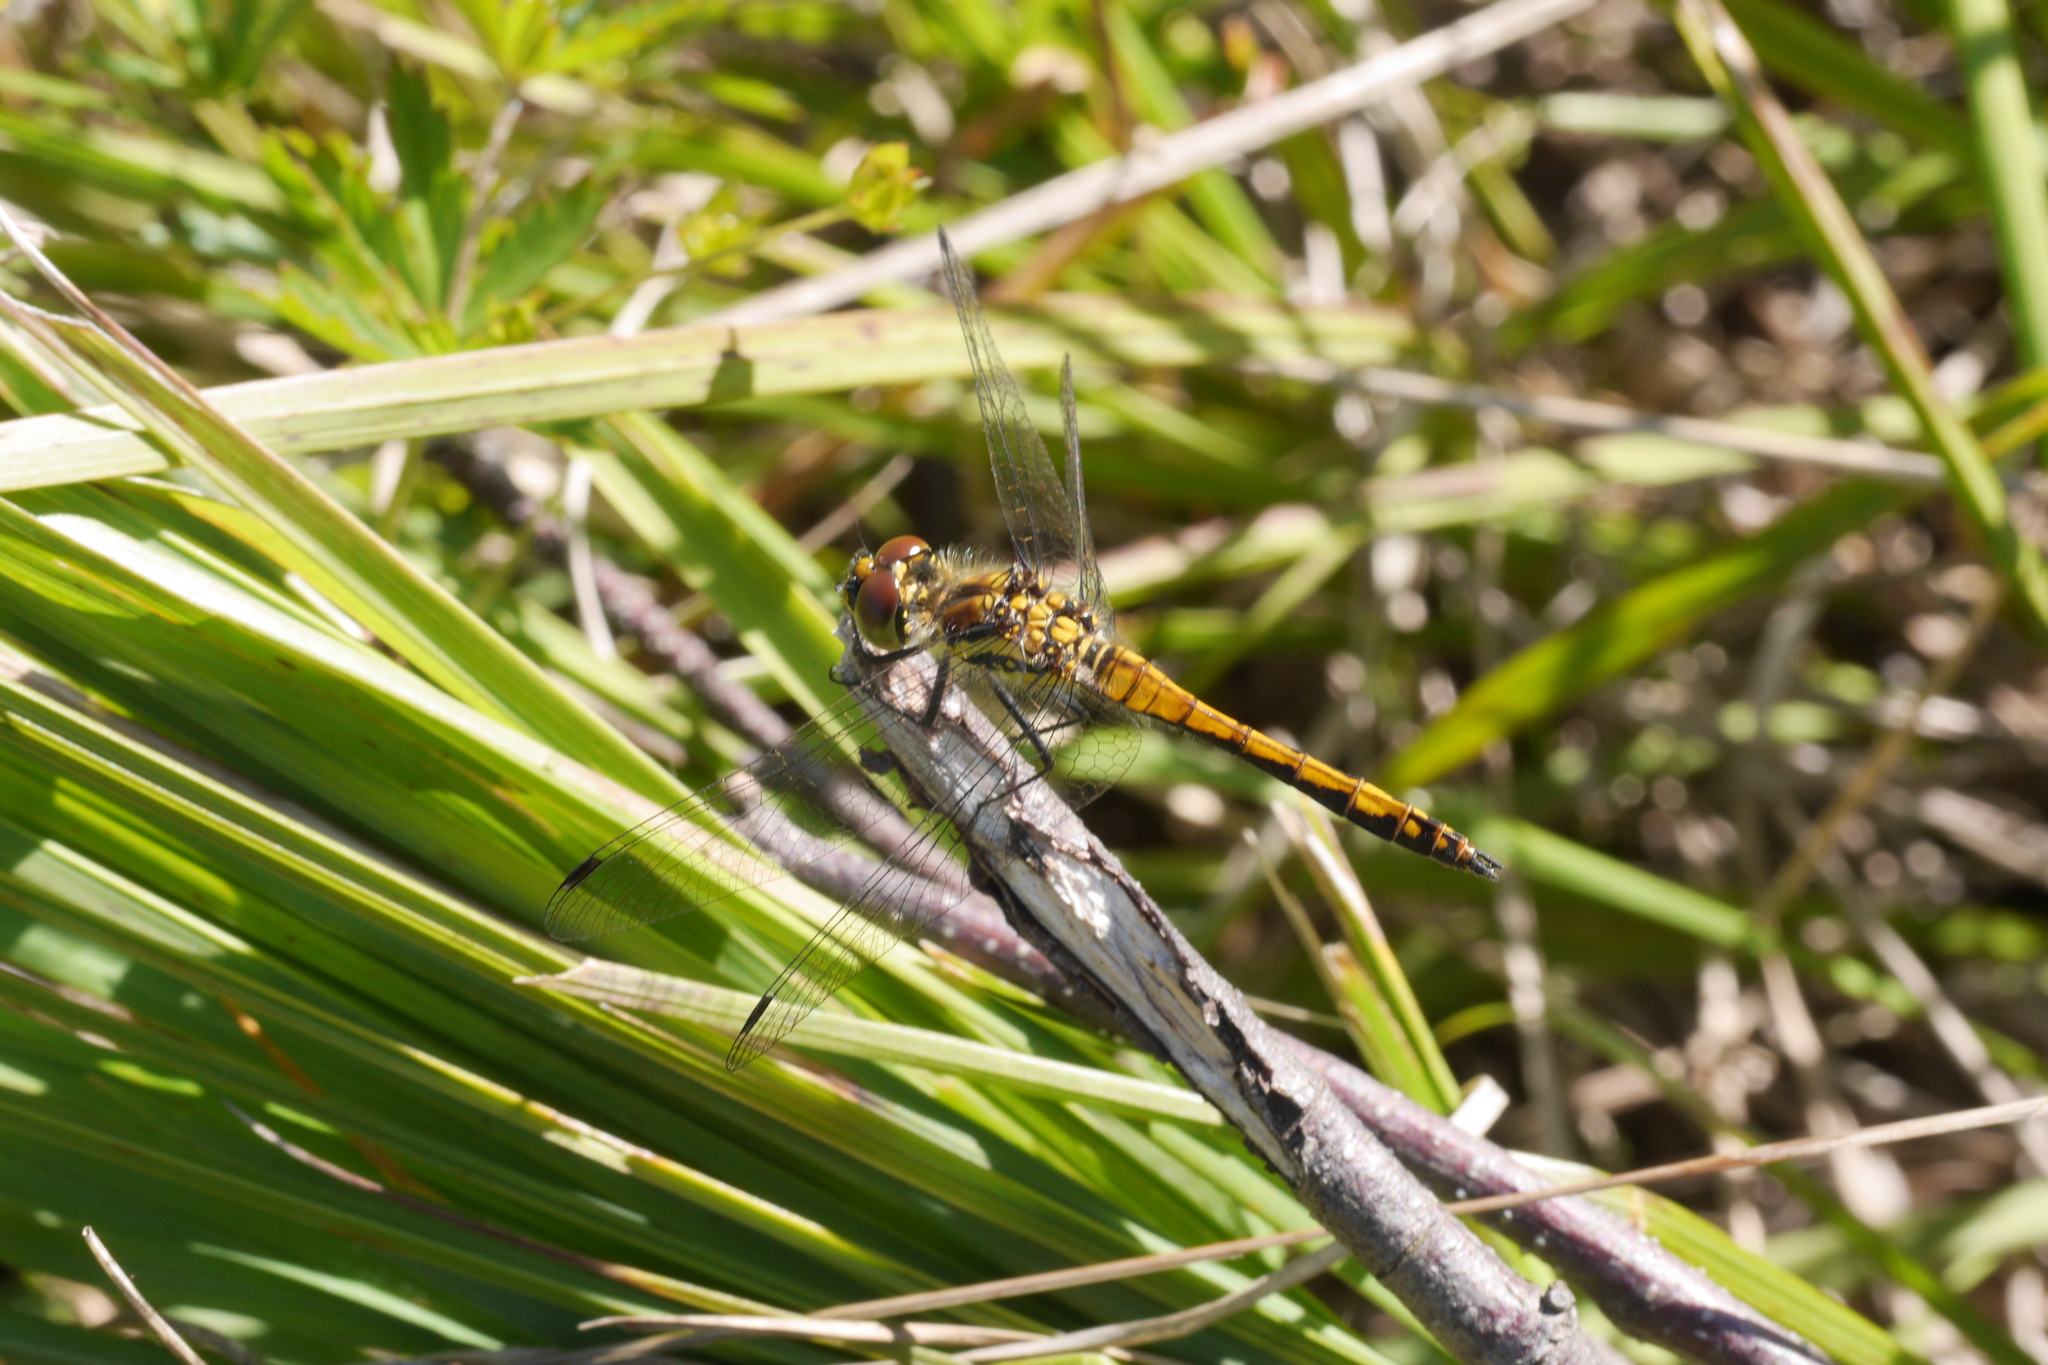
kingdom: Animalia
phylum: Arthropoda
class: Insecta
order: Odonata
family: Libellulidae
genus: Sympetrum
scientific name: Sympetrum danae
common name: Black darter
